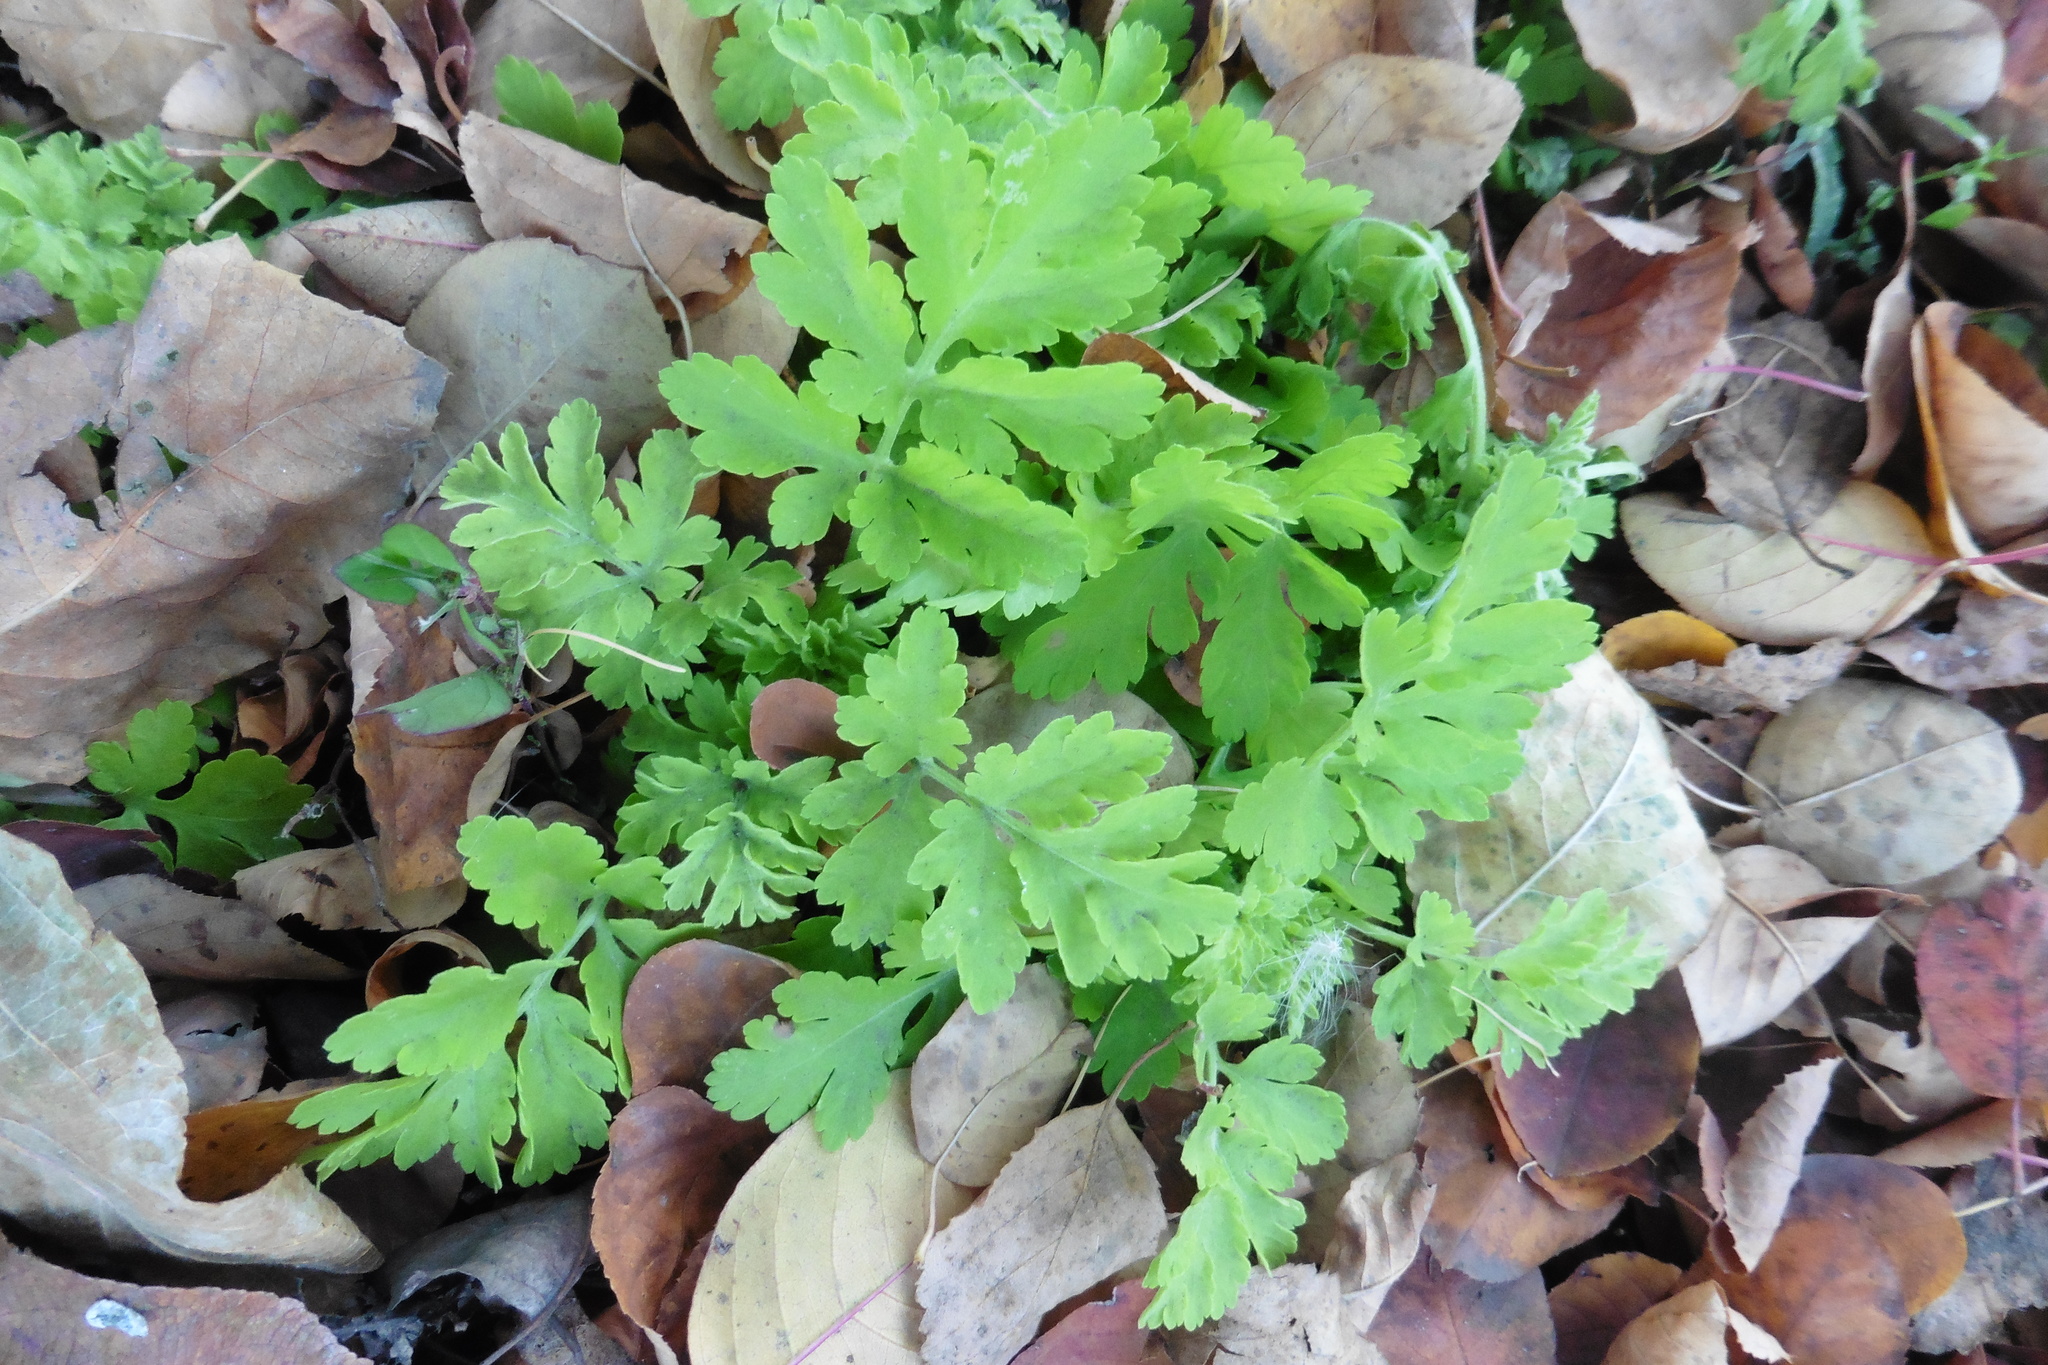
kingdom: Plantae
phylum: Tracheophyta
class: Magnoliopsida
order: Asterales
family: Asteraceae
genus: Tanacetum
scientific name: Tanacetum parthenium
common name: Feverfew
